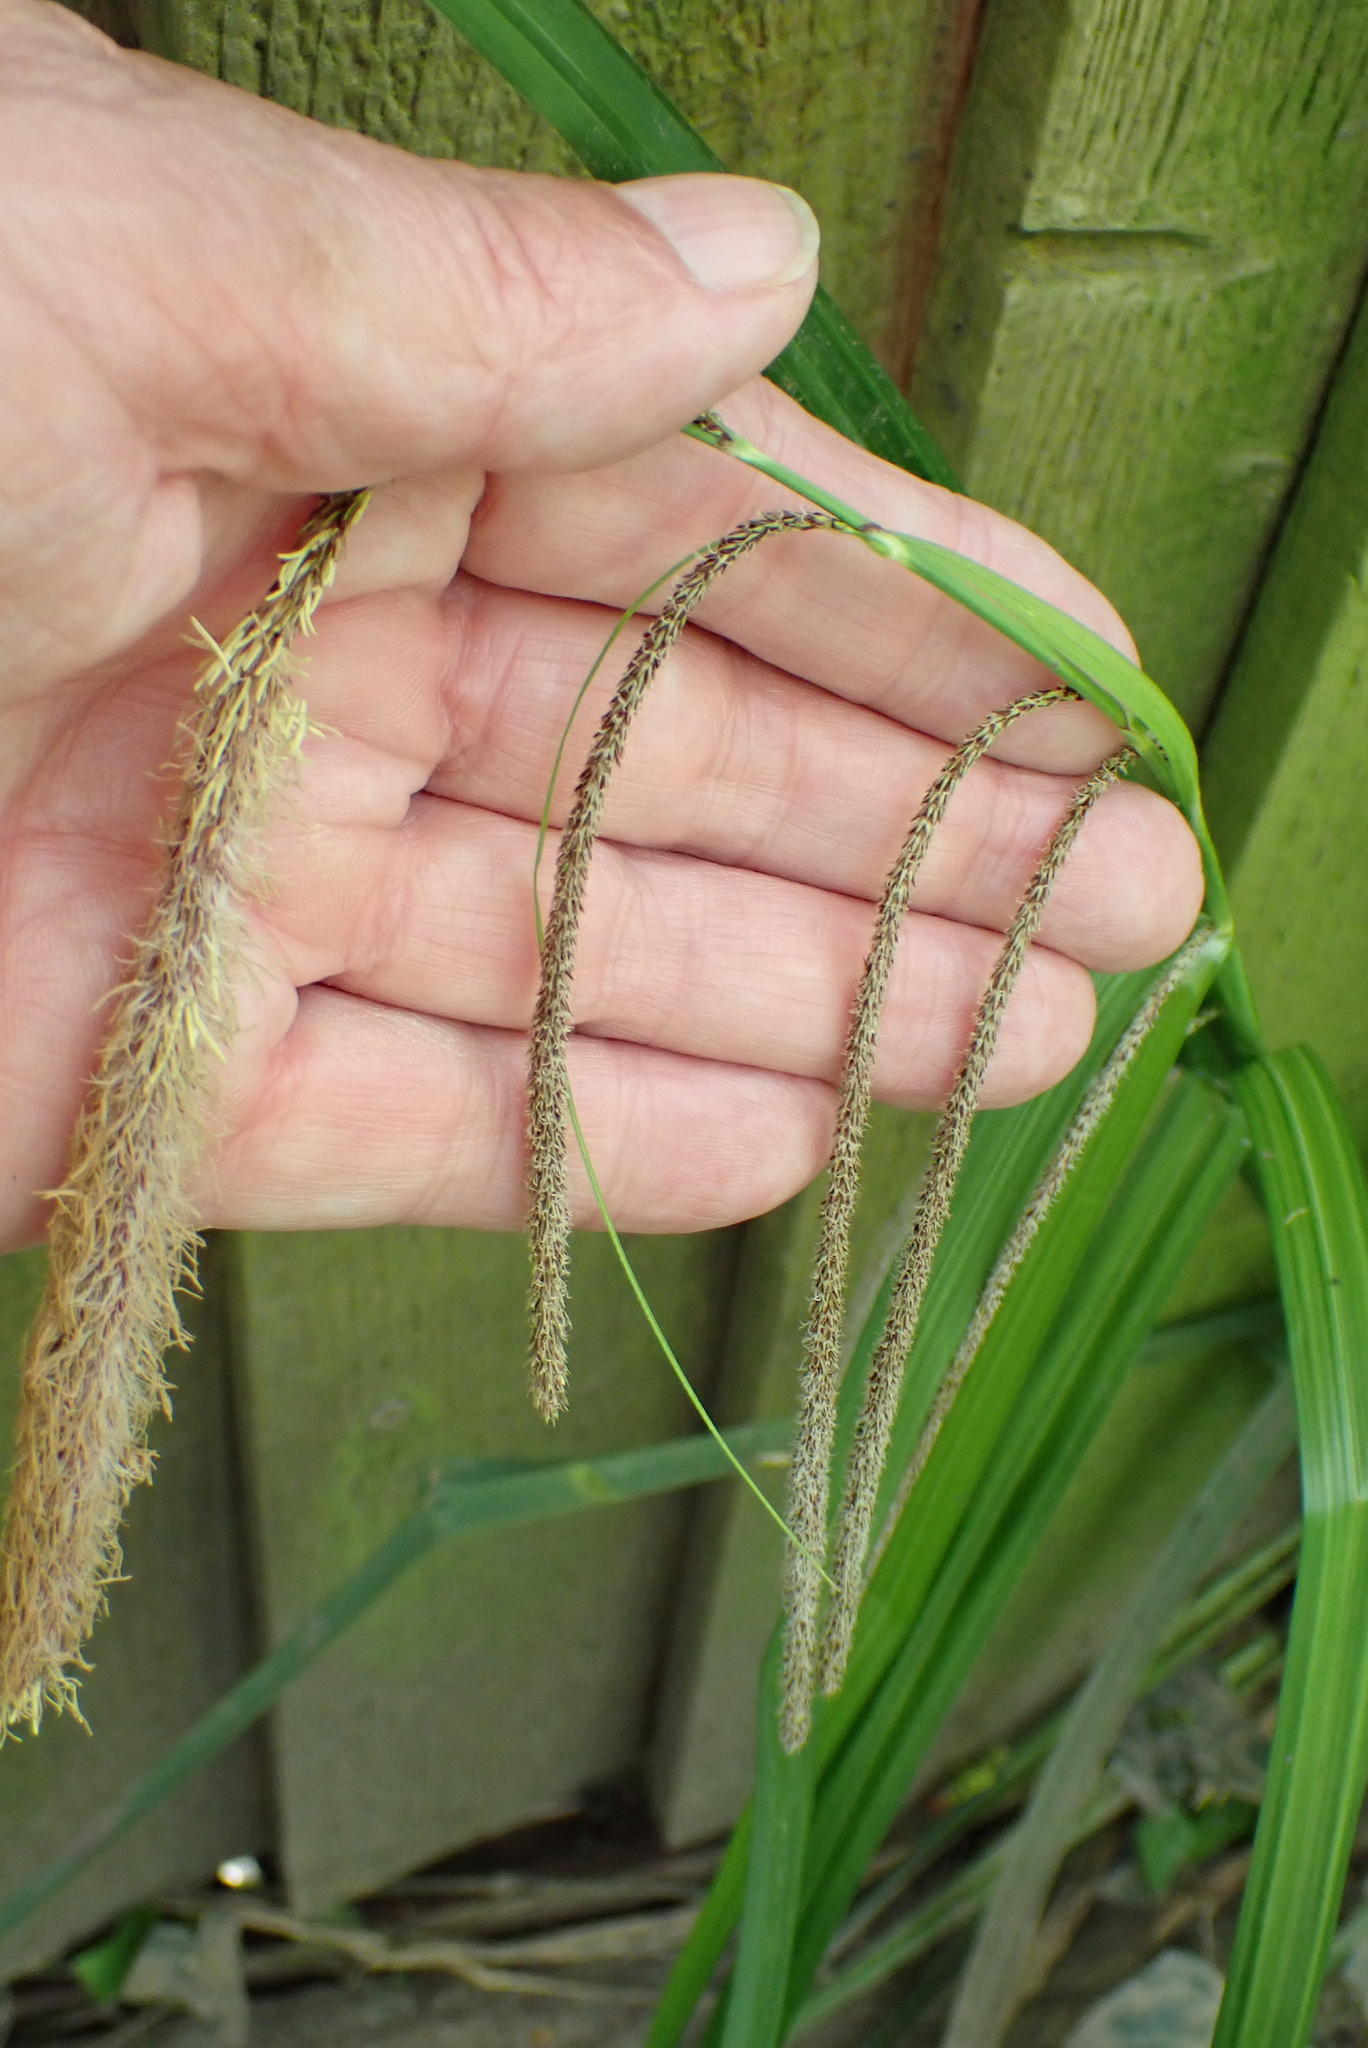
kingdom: Plantae
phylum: Tracheophyta
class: Liliopsida
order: Poales
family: Cyperaceae
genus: Carex
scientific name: Carex pendula
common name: Pendulous sedge
